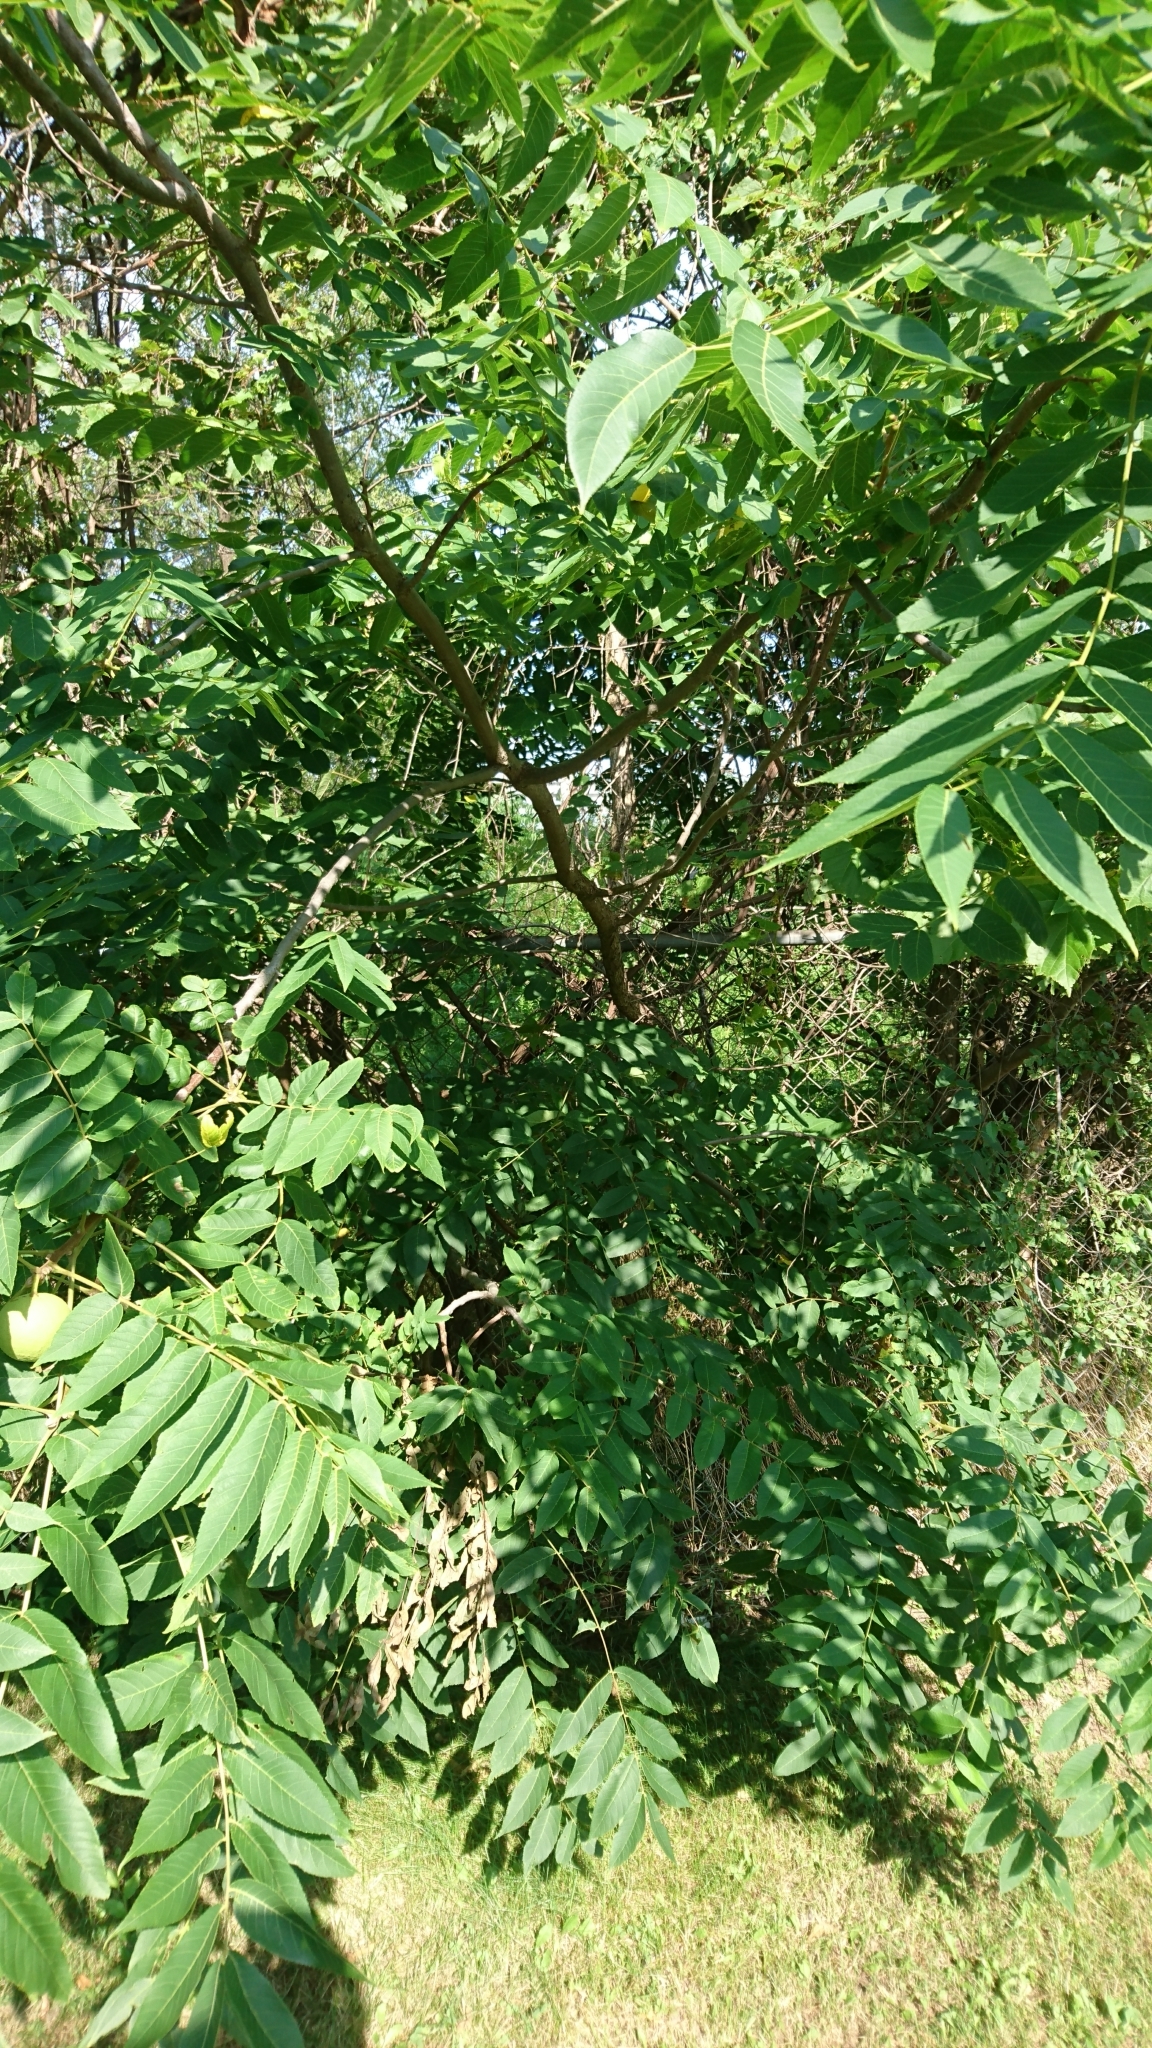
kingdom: Plantae
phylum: Tracheophyta
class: Magnoliopsida
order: Fagales
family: Juglandaceae
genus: Juglans
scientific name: Juglans nigra
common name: Black walnut
